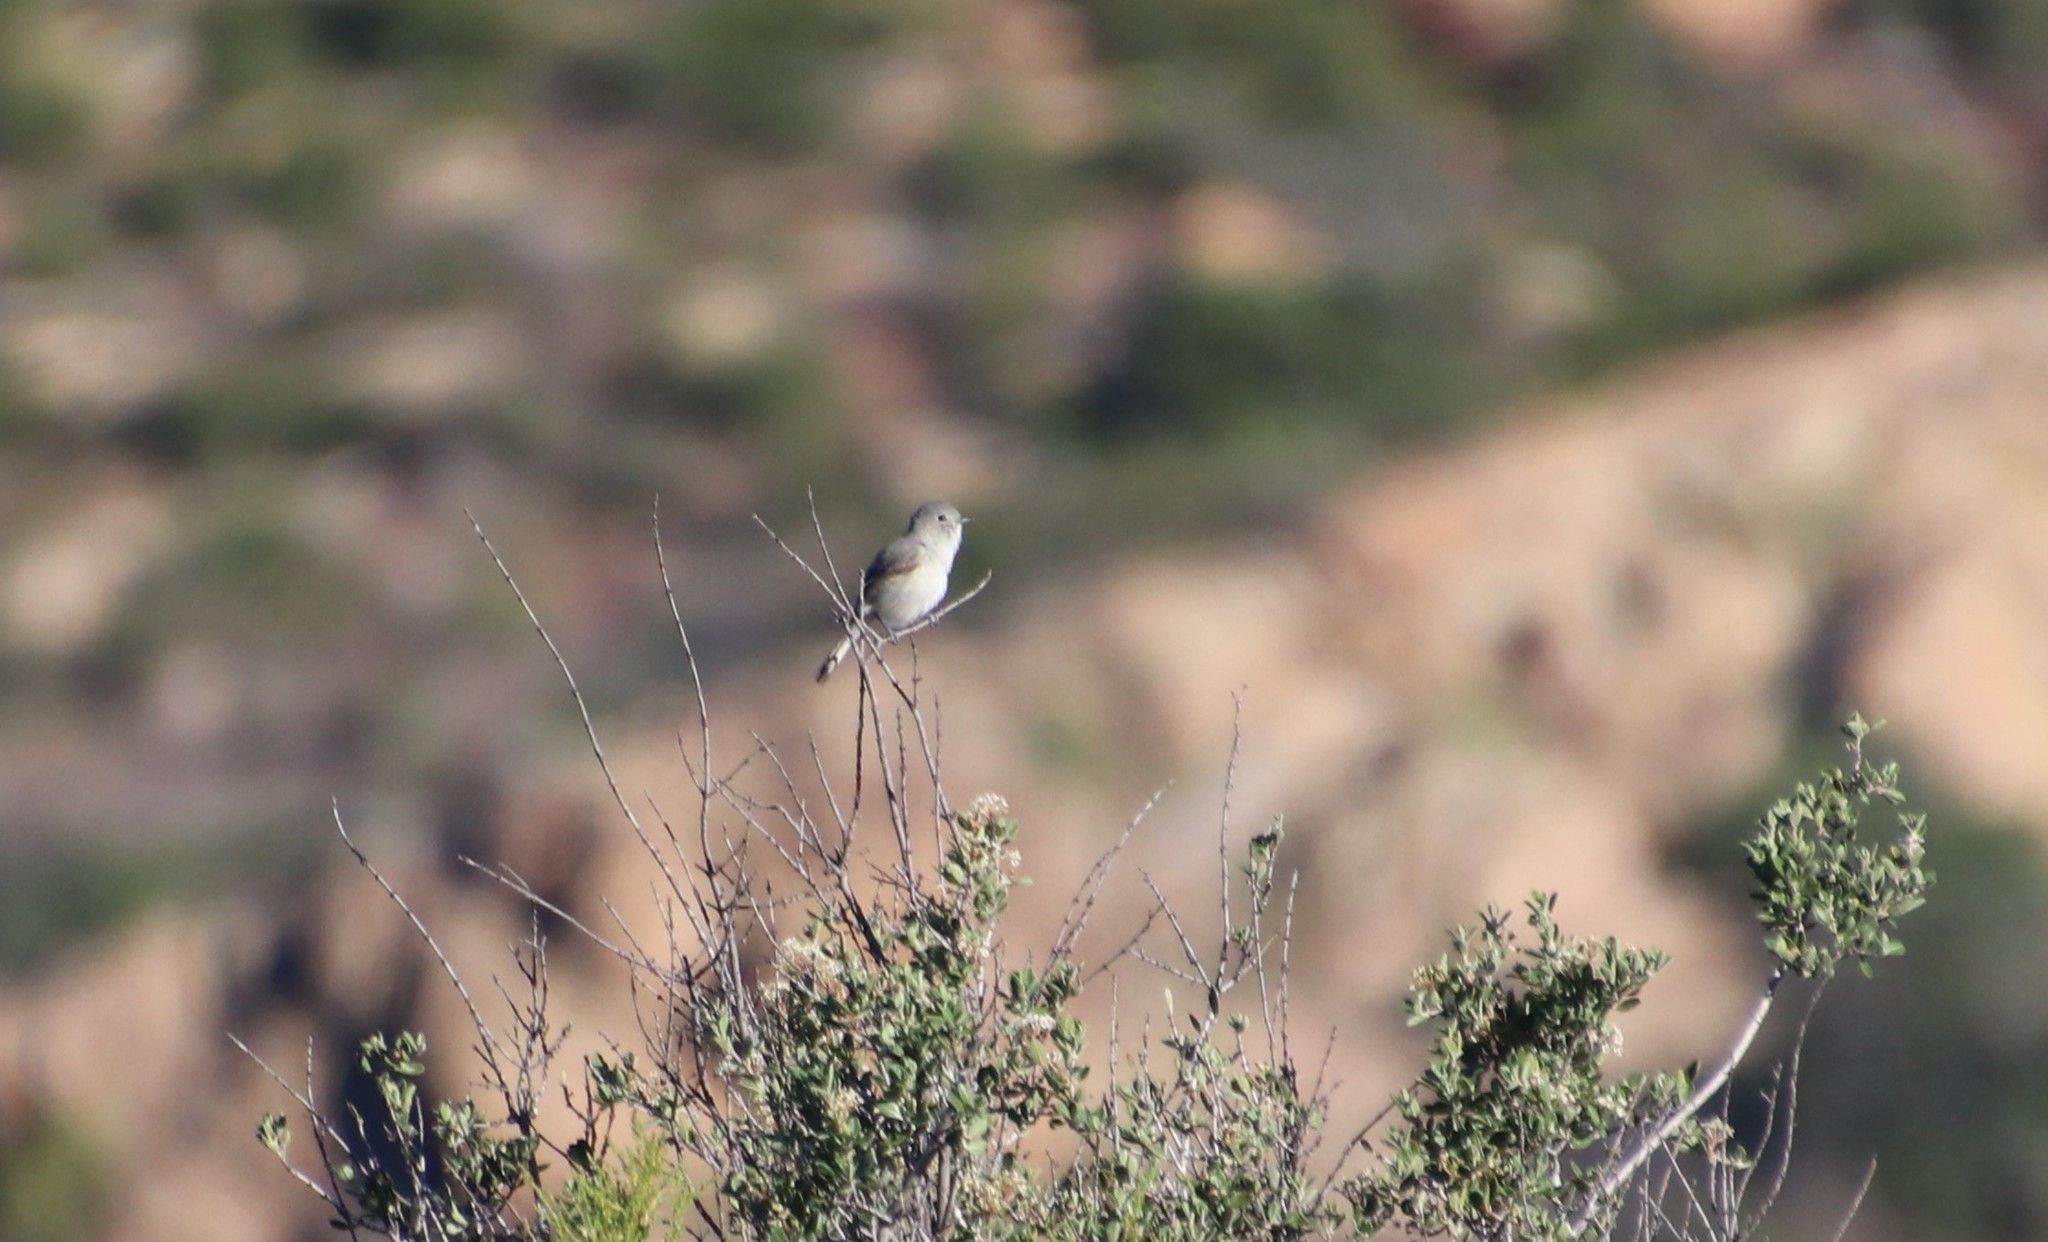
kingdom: Animalia
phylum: Chordata
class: Aves
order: Passeriformes
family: Vireonidae
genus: Vireo
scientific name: Vireo vicinior
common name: Gray vireo
